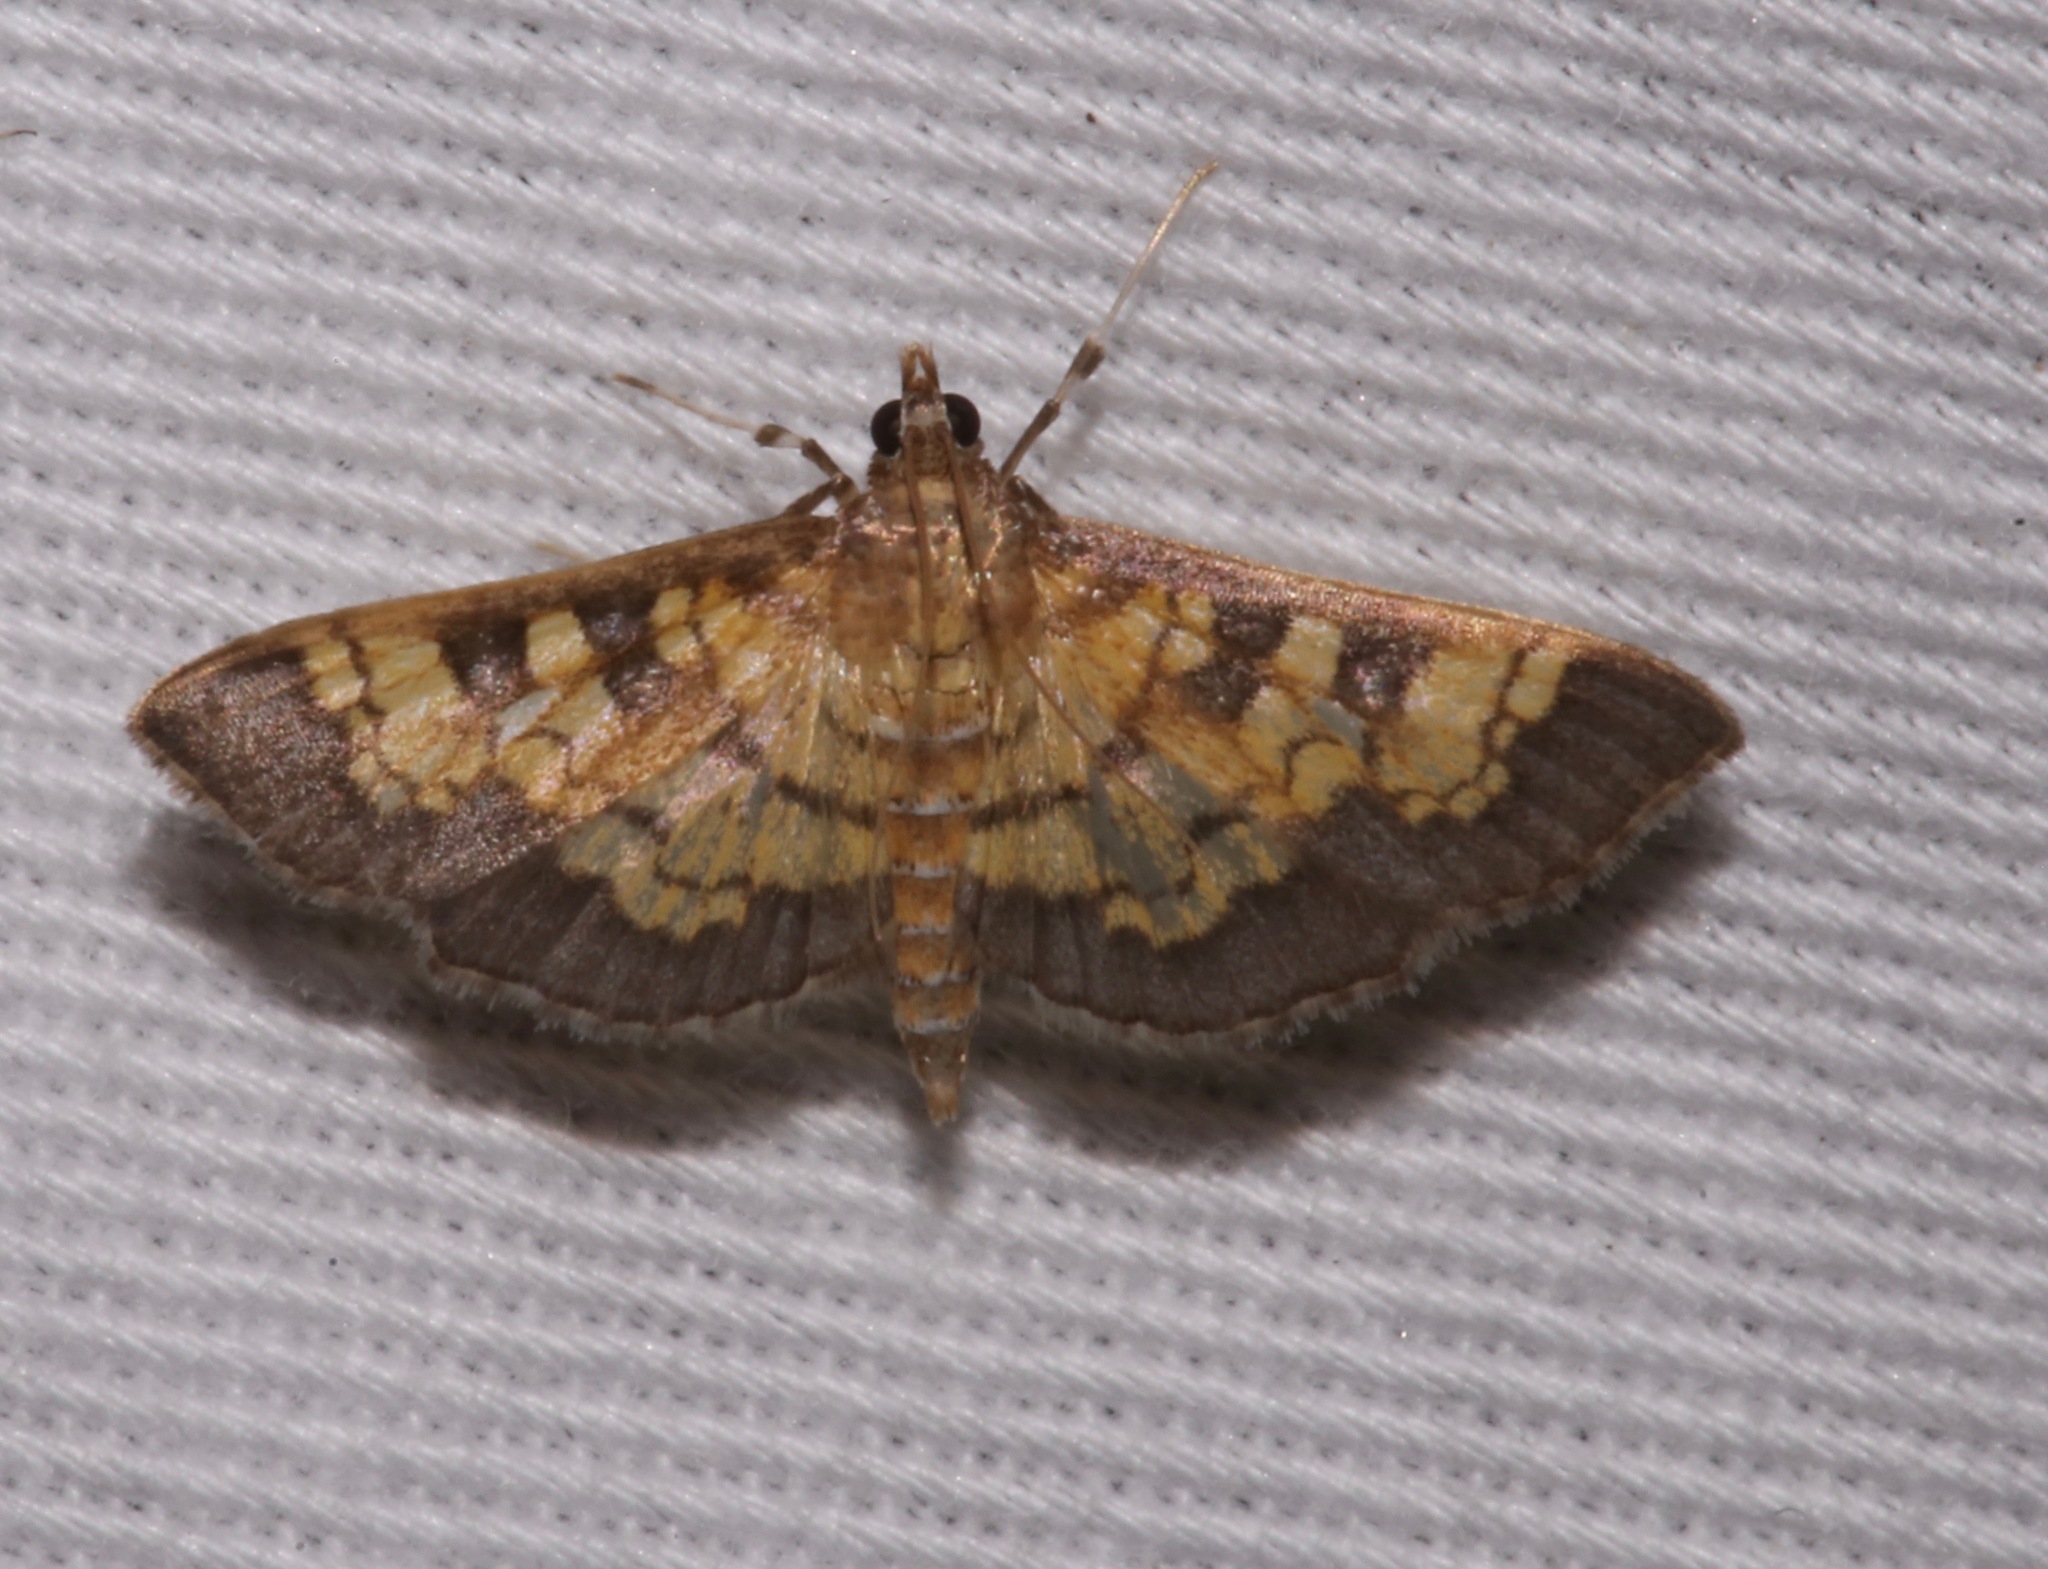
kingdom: Animalia
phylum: Arthropoda
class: Insecta
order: Lepidoptera
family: Crambidae
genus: Epipagis
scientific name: Epipagis adipaloides
